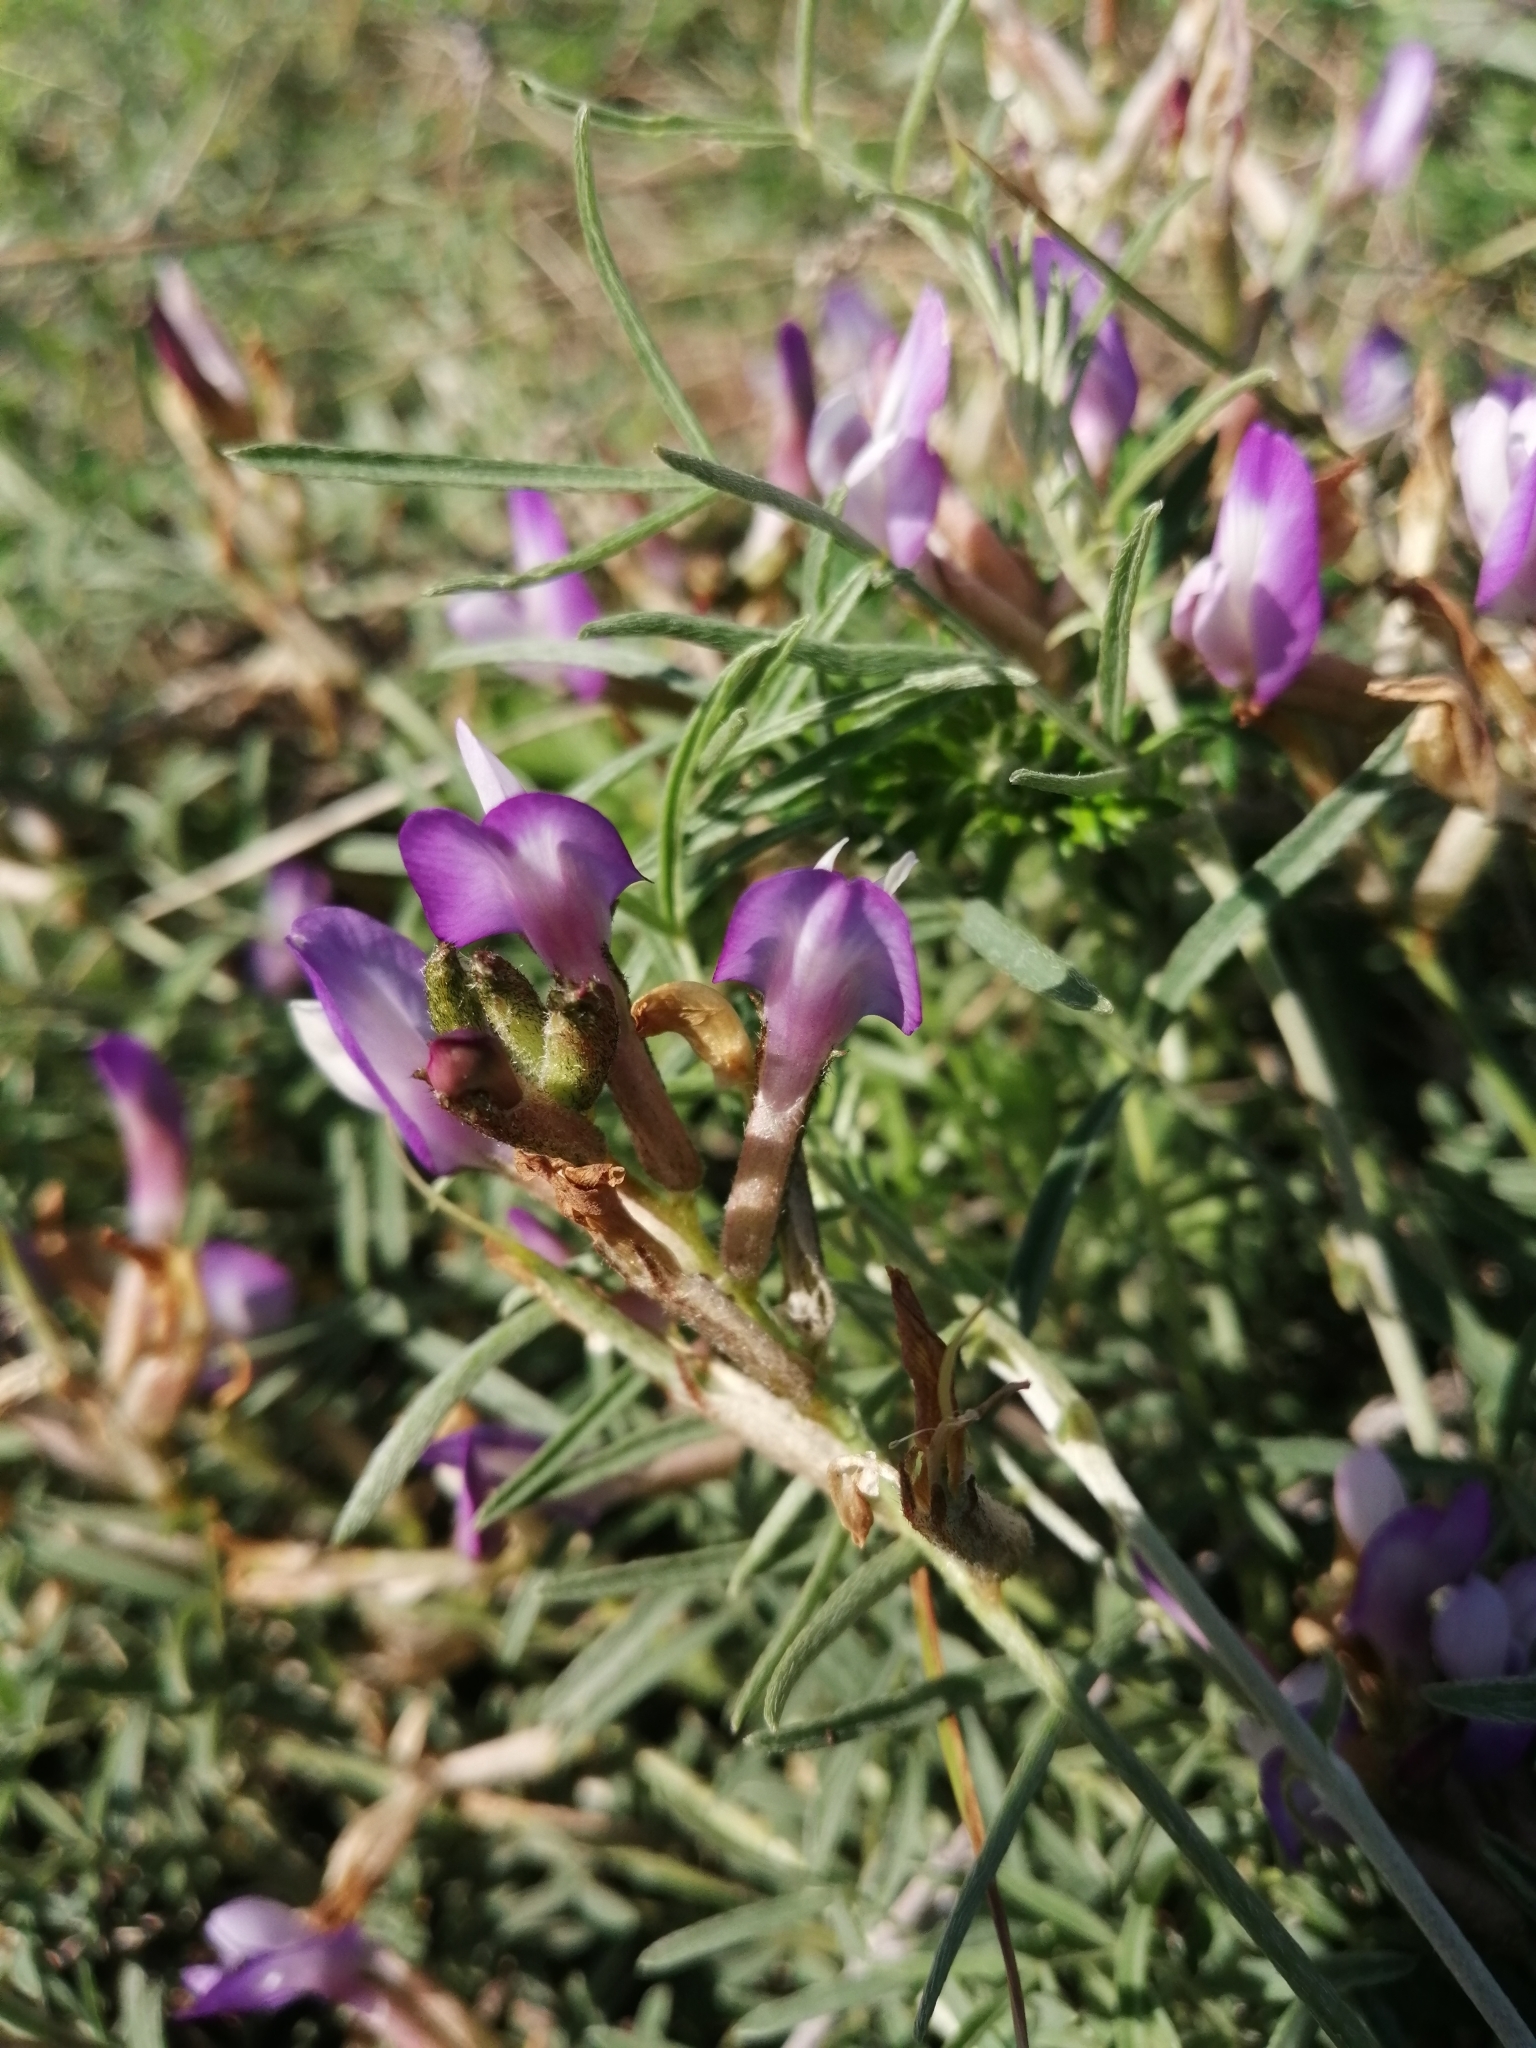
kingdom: Plantae
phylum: Tracheophyta
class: Magnoliopsida
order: Fabales
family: Fabaceae
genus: Astragalus
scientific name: Astragalus temirensis
